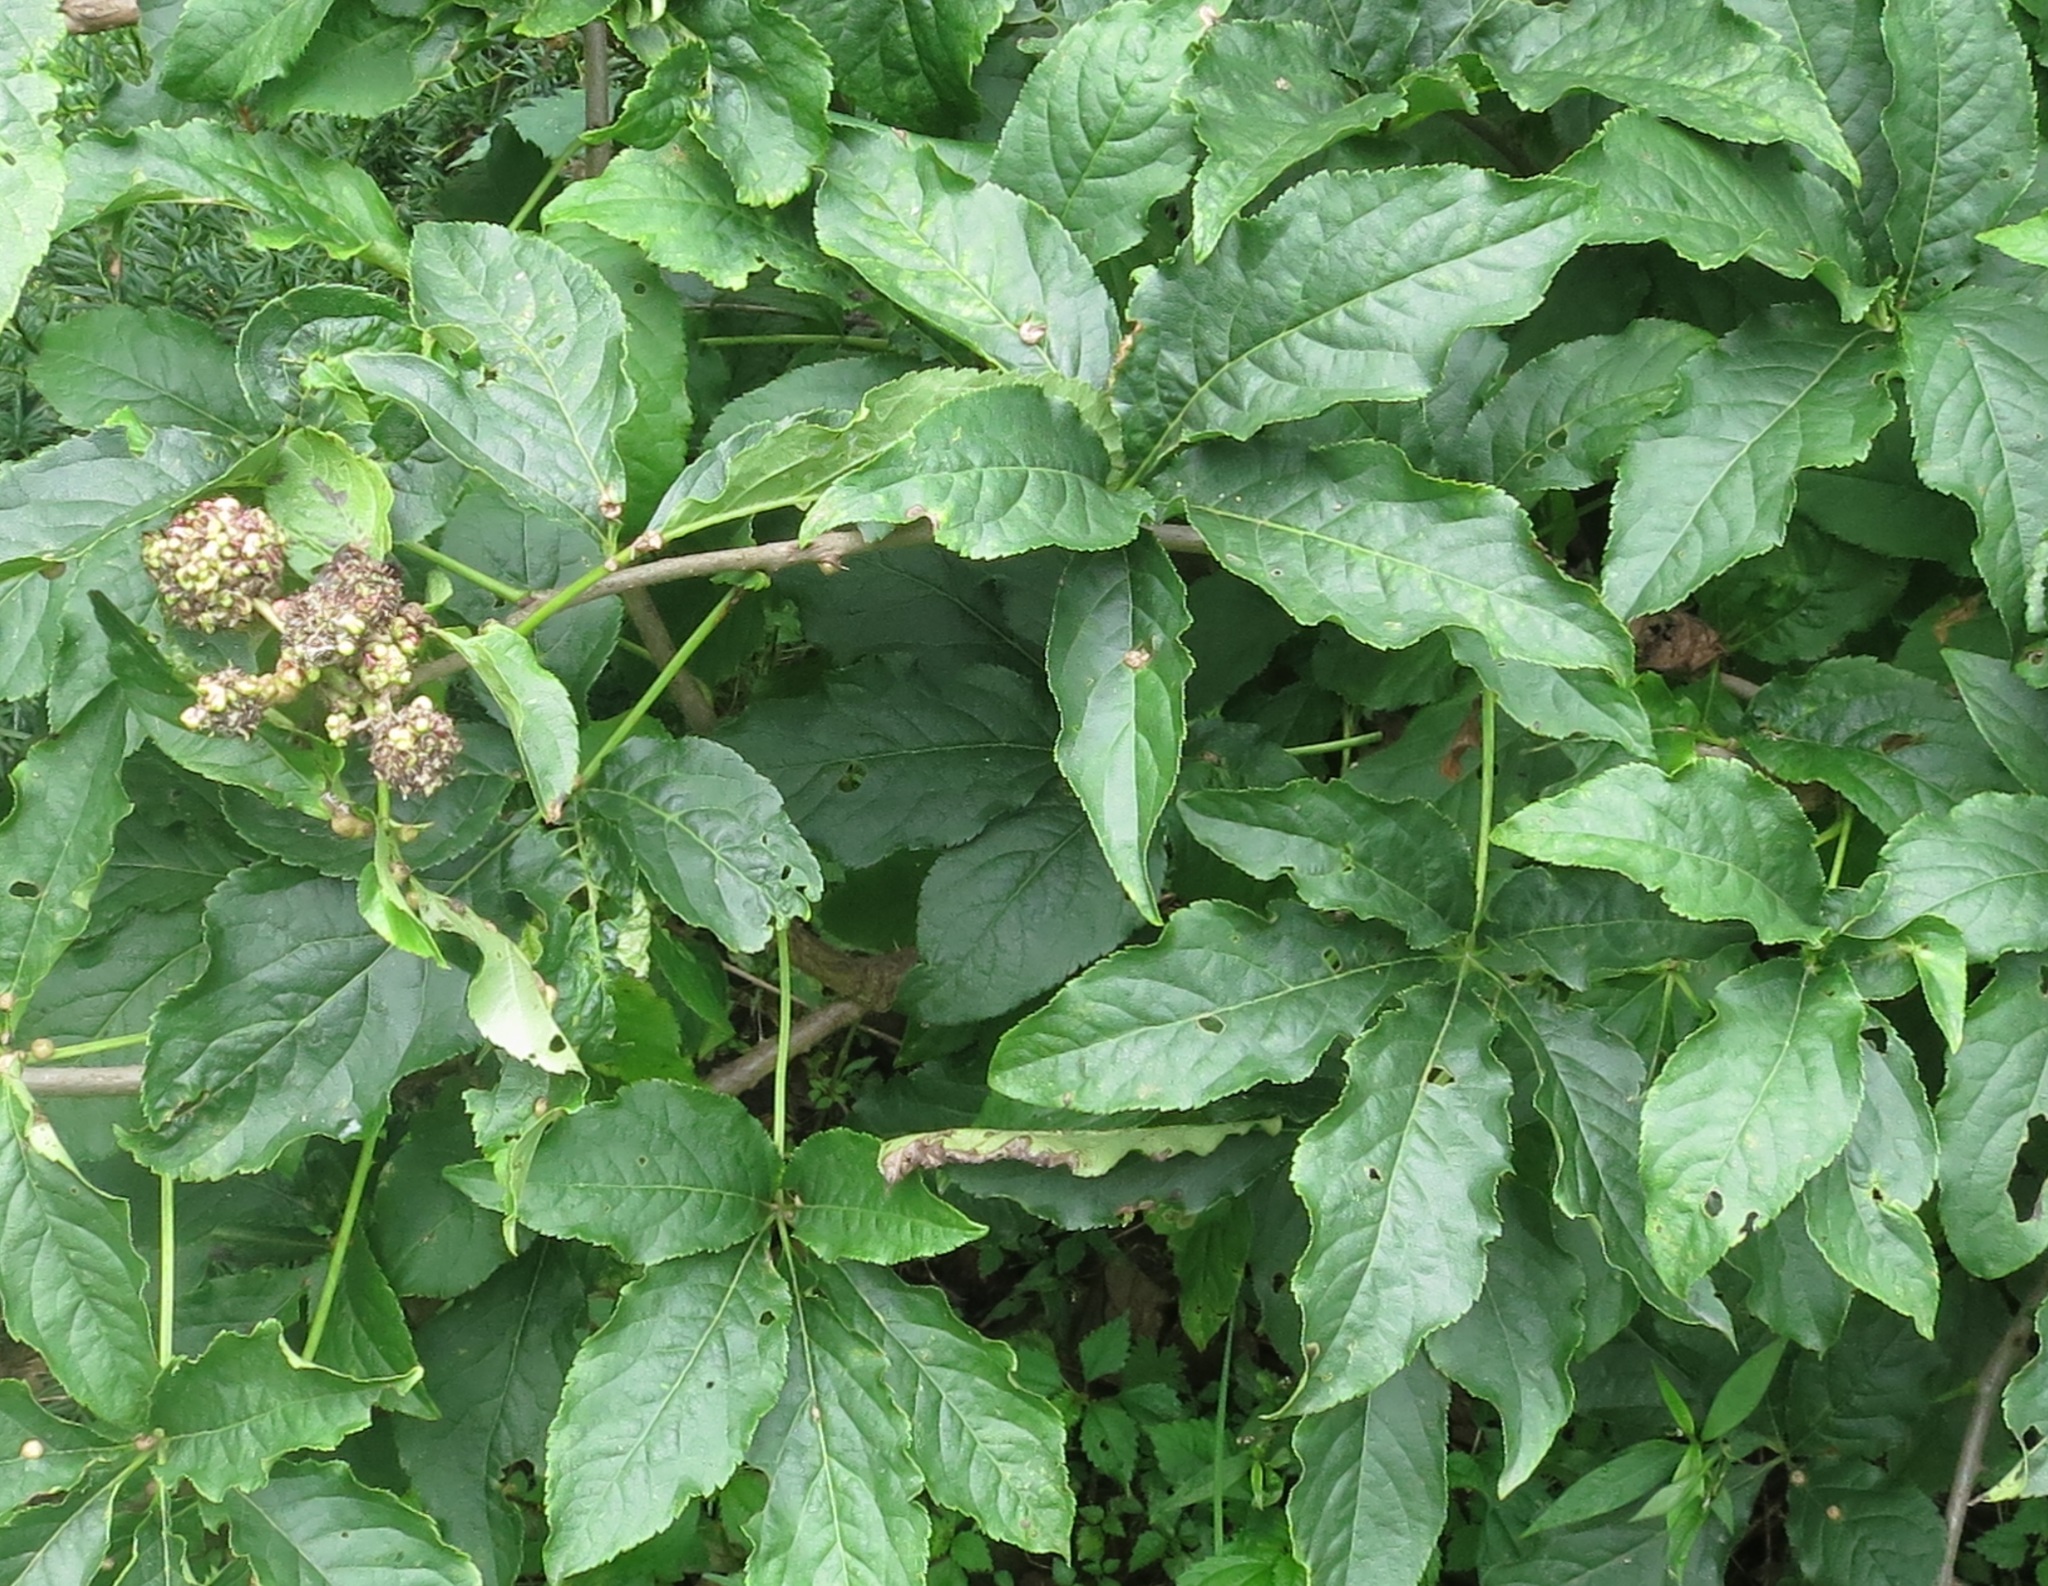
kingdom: Plantae
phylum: Tracheophyta
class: Magnoliopsida
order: Apiales
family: Araliaceae
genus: Eleutherococcus
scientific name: Eleutherococcus sessiliflorus
